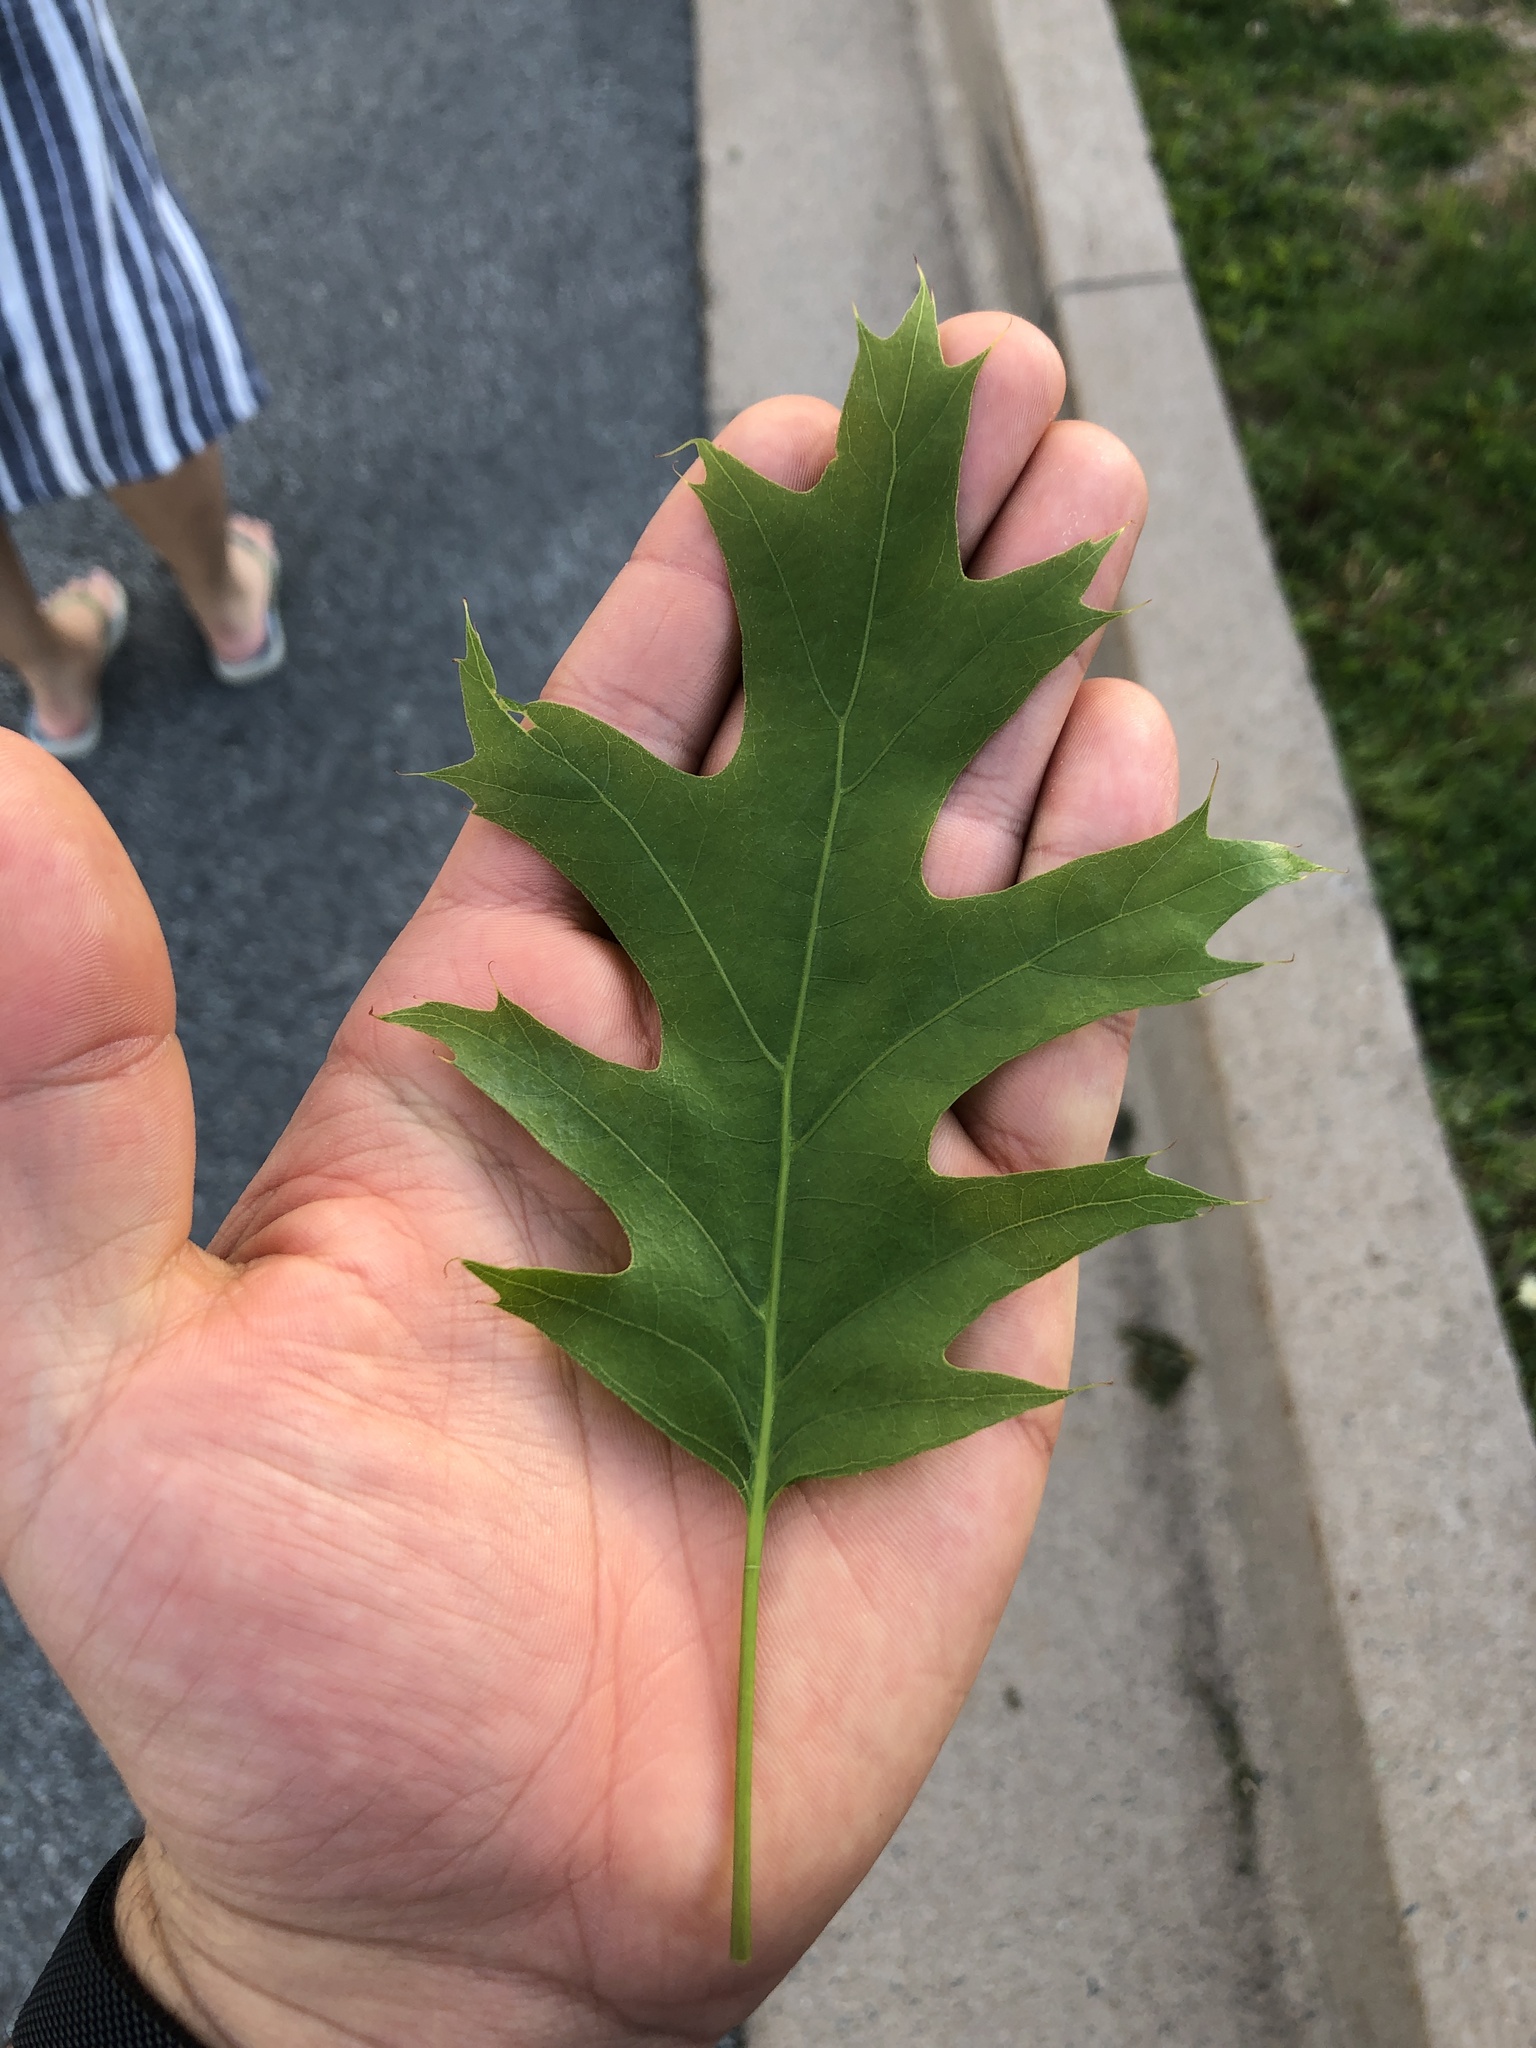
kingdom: Plantae
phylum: Tracheophyta
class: Magnoliopsida
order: Fagales
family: Fagaceae
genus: Quercus
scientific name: Quercus rubra
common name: Red oak
